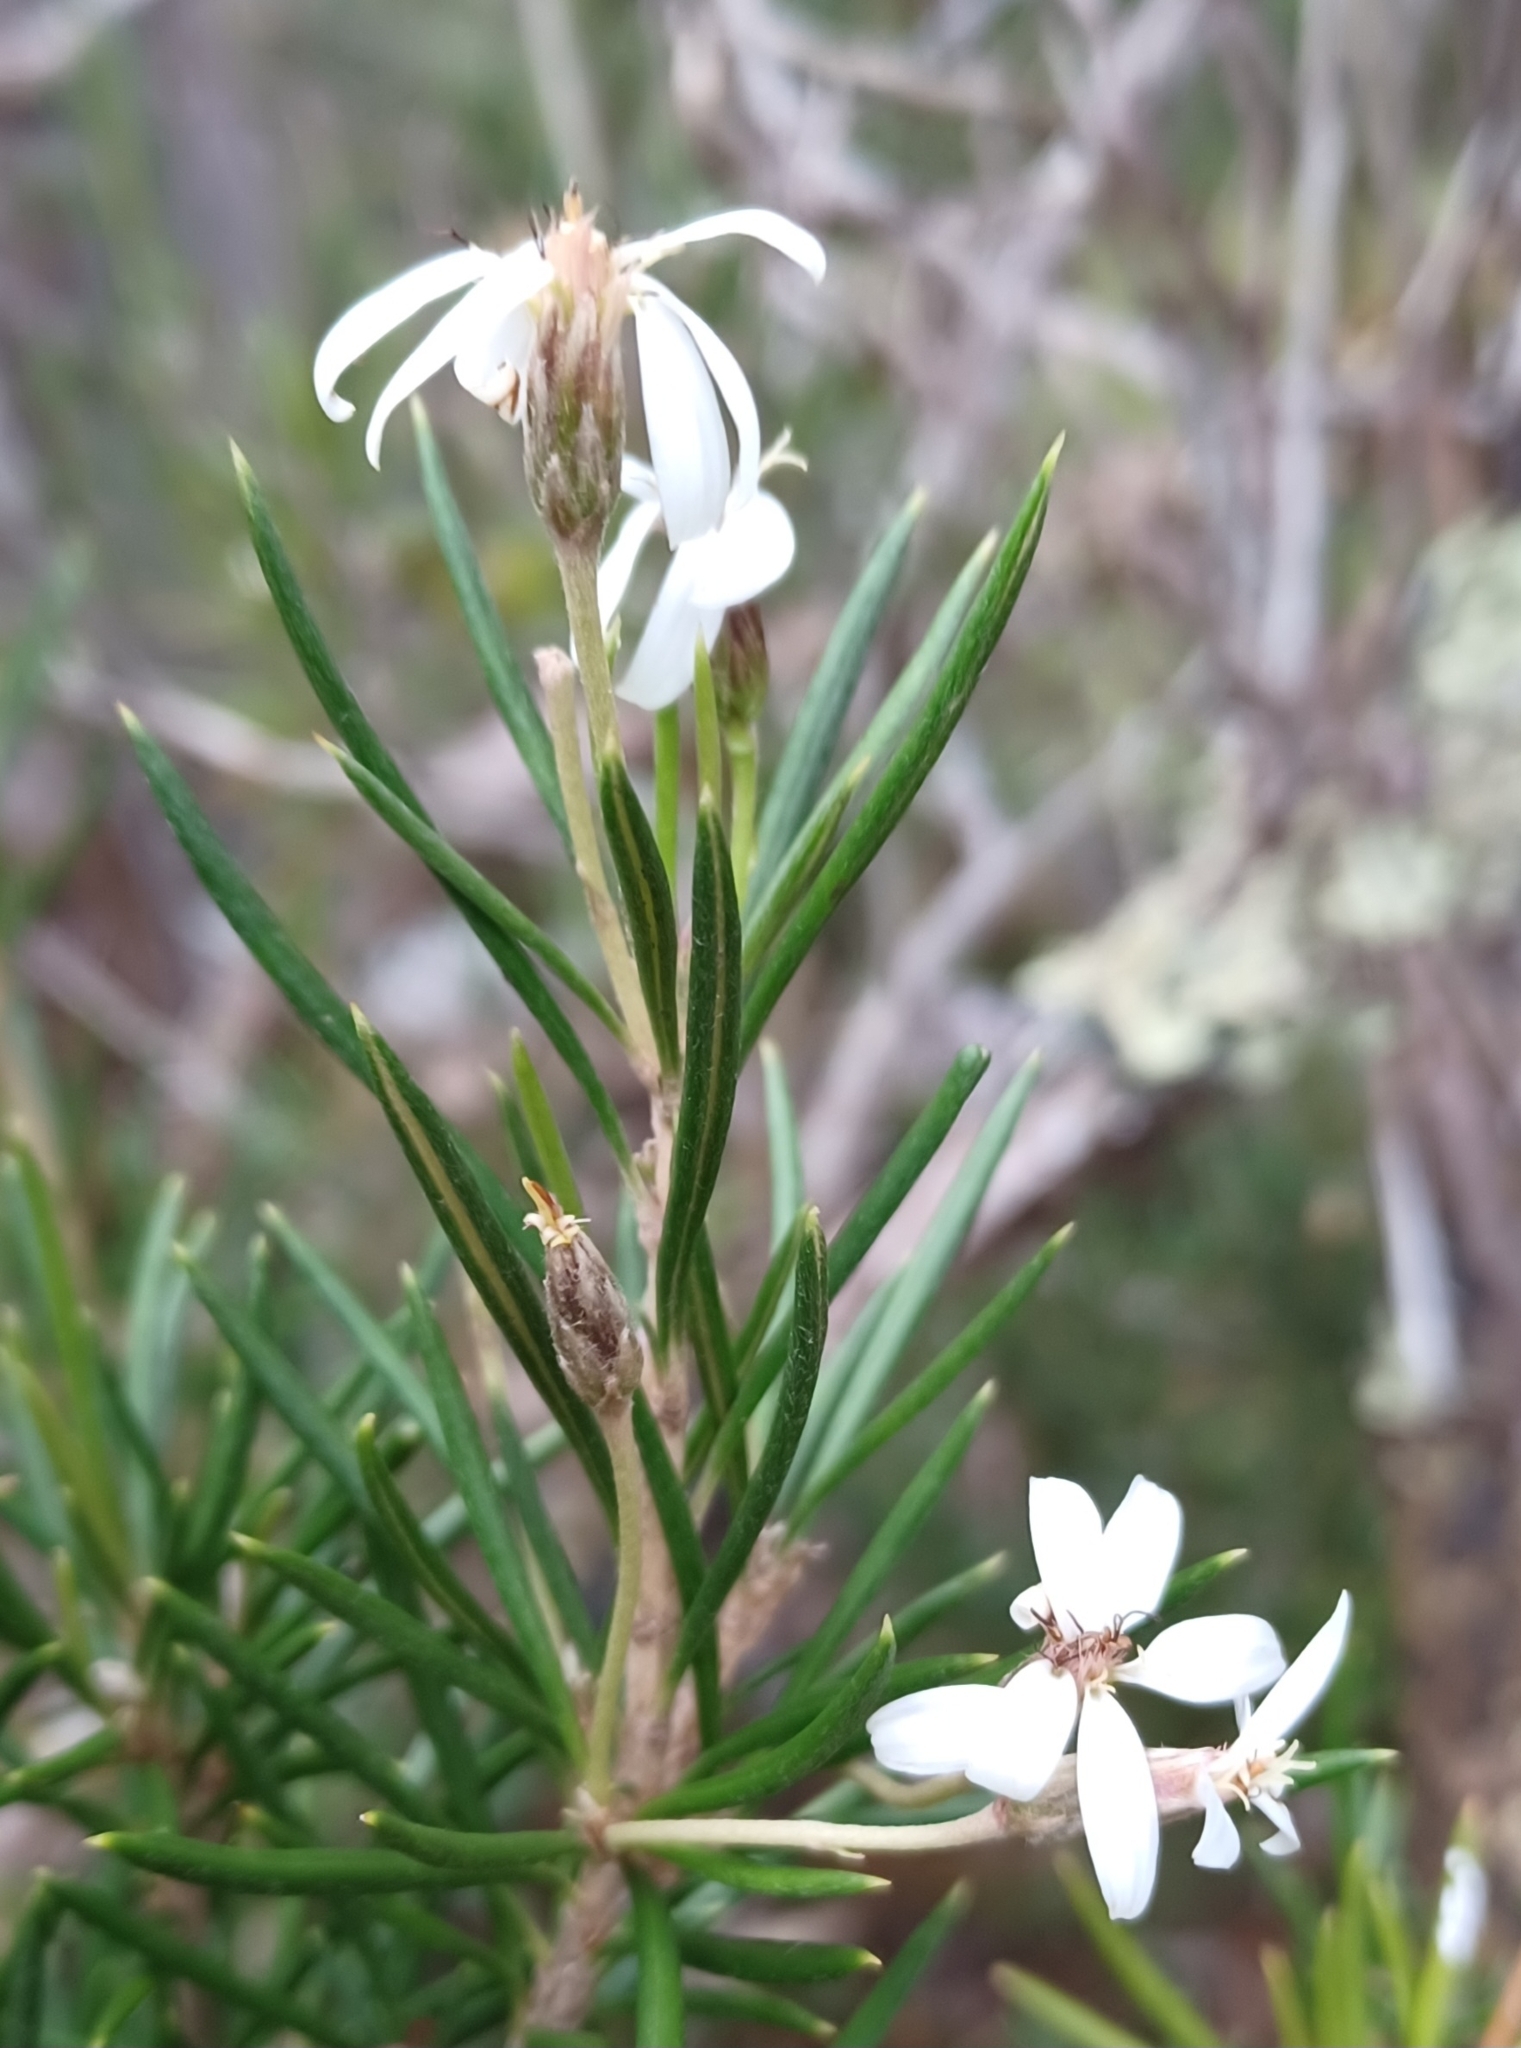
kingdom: Plantae
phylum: Tracheophyta
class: Magnoliopsida
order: Asterales
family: Asteraceae
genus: Olearia
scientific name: Olearia pinifolia
